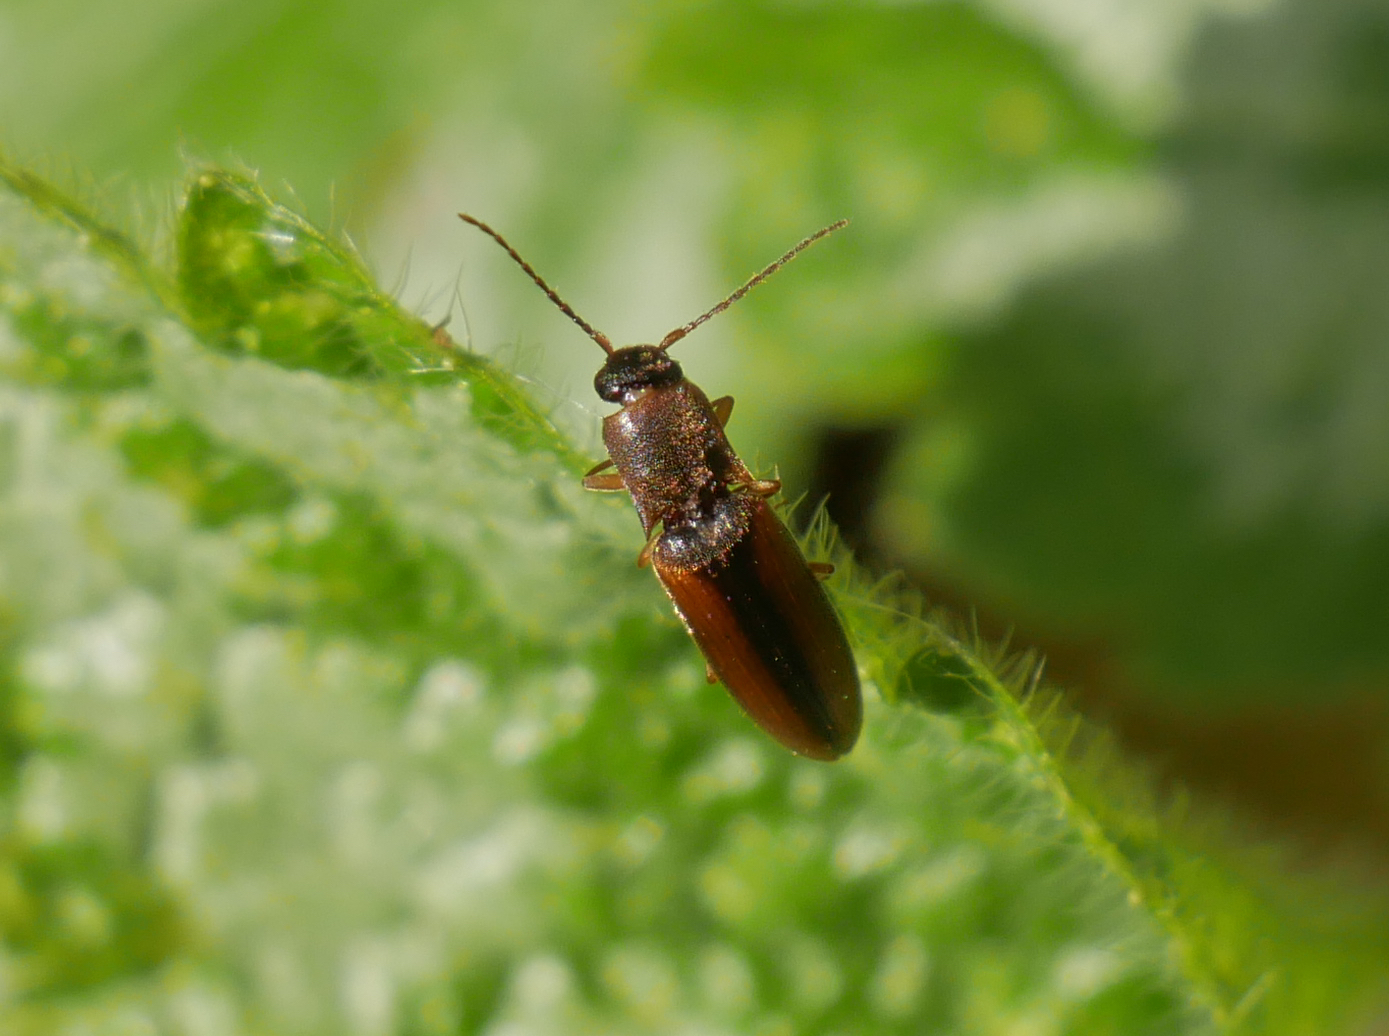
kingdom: Animalia
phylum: Arthropoda
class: Insecta
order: Coleoptera
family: Elateridae
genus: Dalopius
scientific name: Dalopius marginatus
